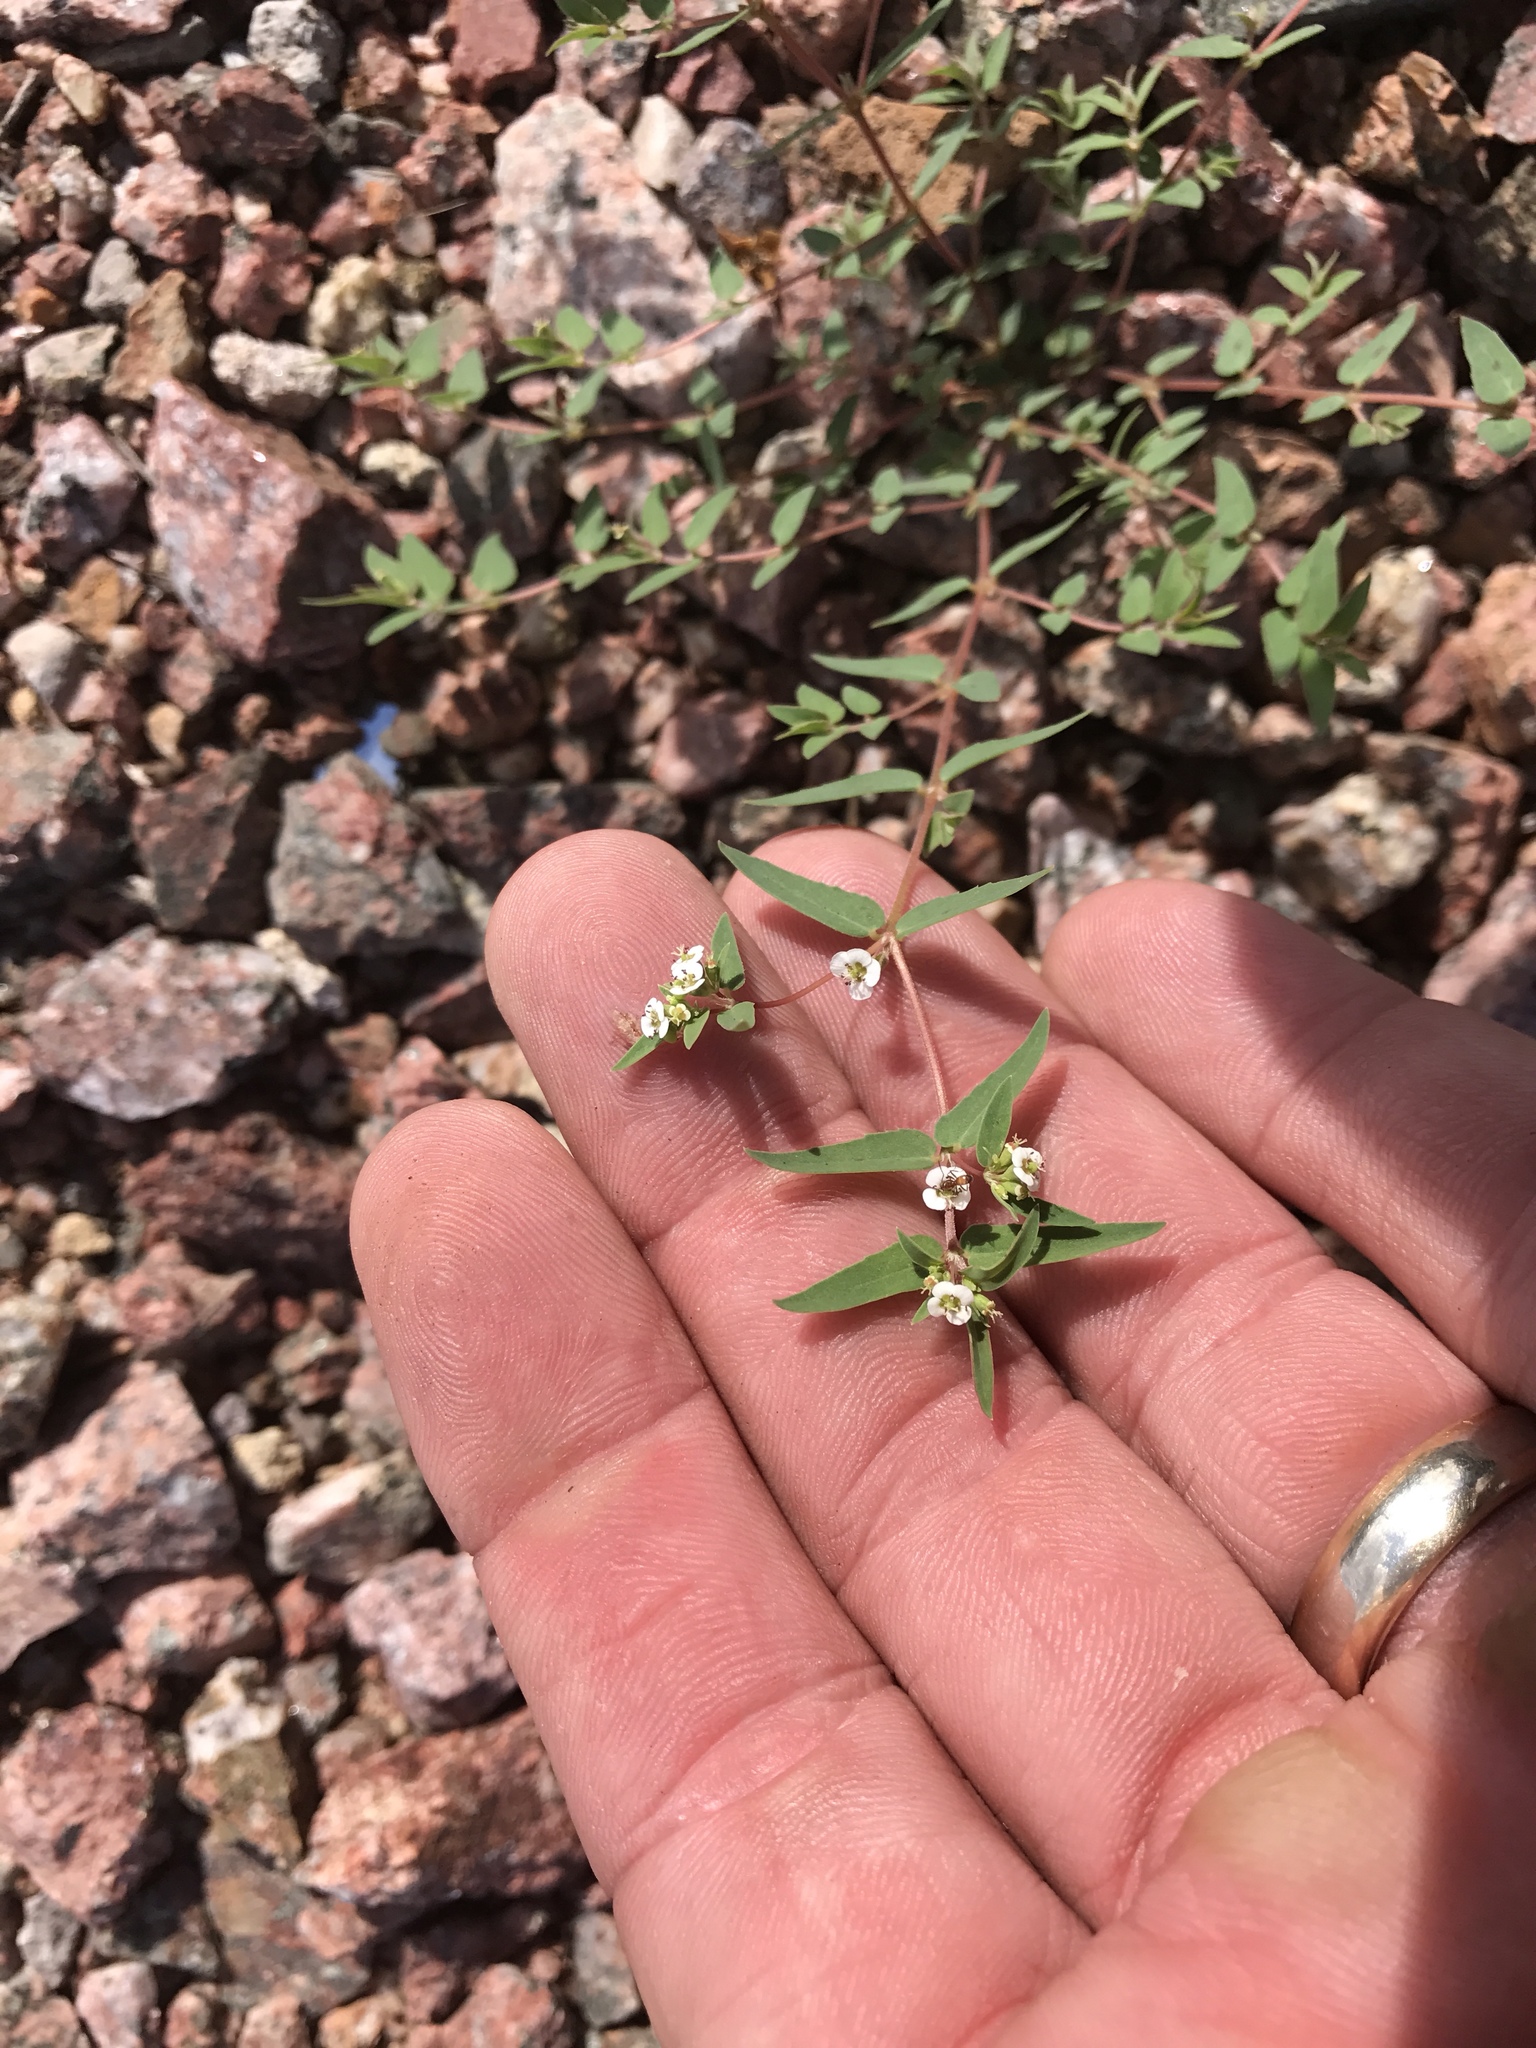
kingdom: Plantae
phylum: Tracheophyta
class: Magnoliopsida
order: Malpighiales
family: Euphorbiaceae
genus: Euphorbia
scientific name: Euphorbia capitellata
